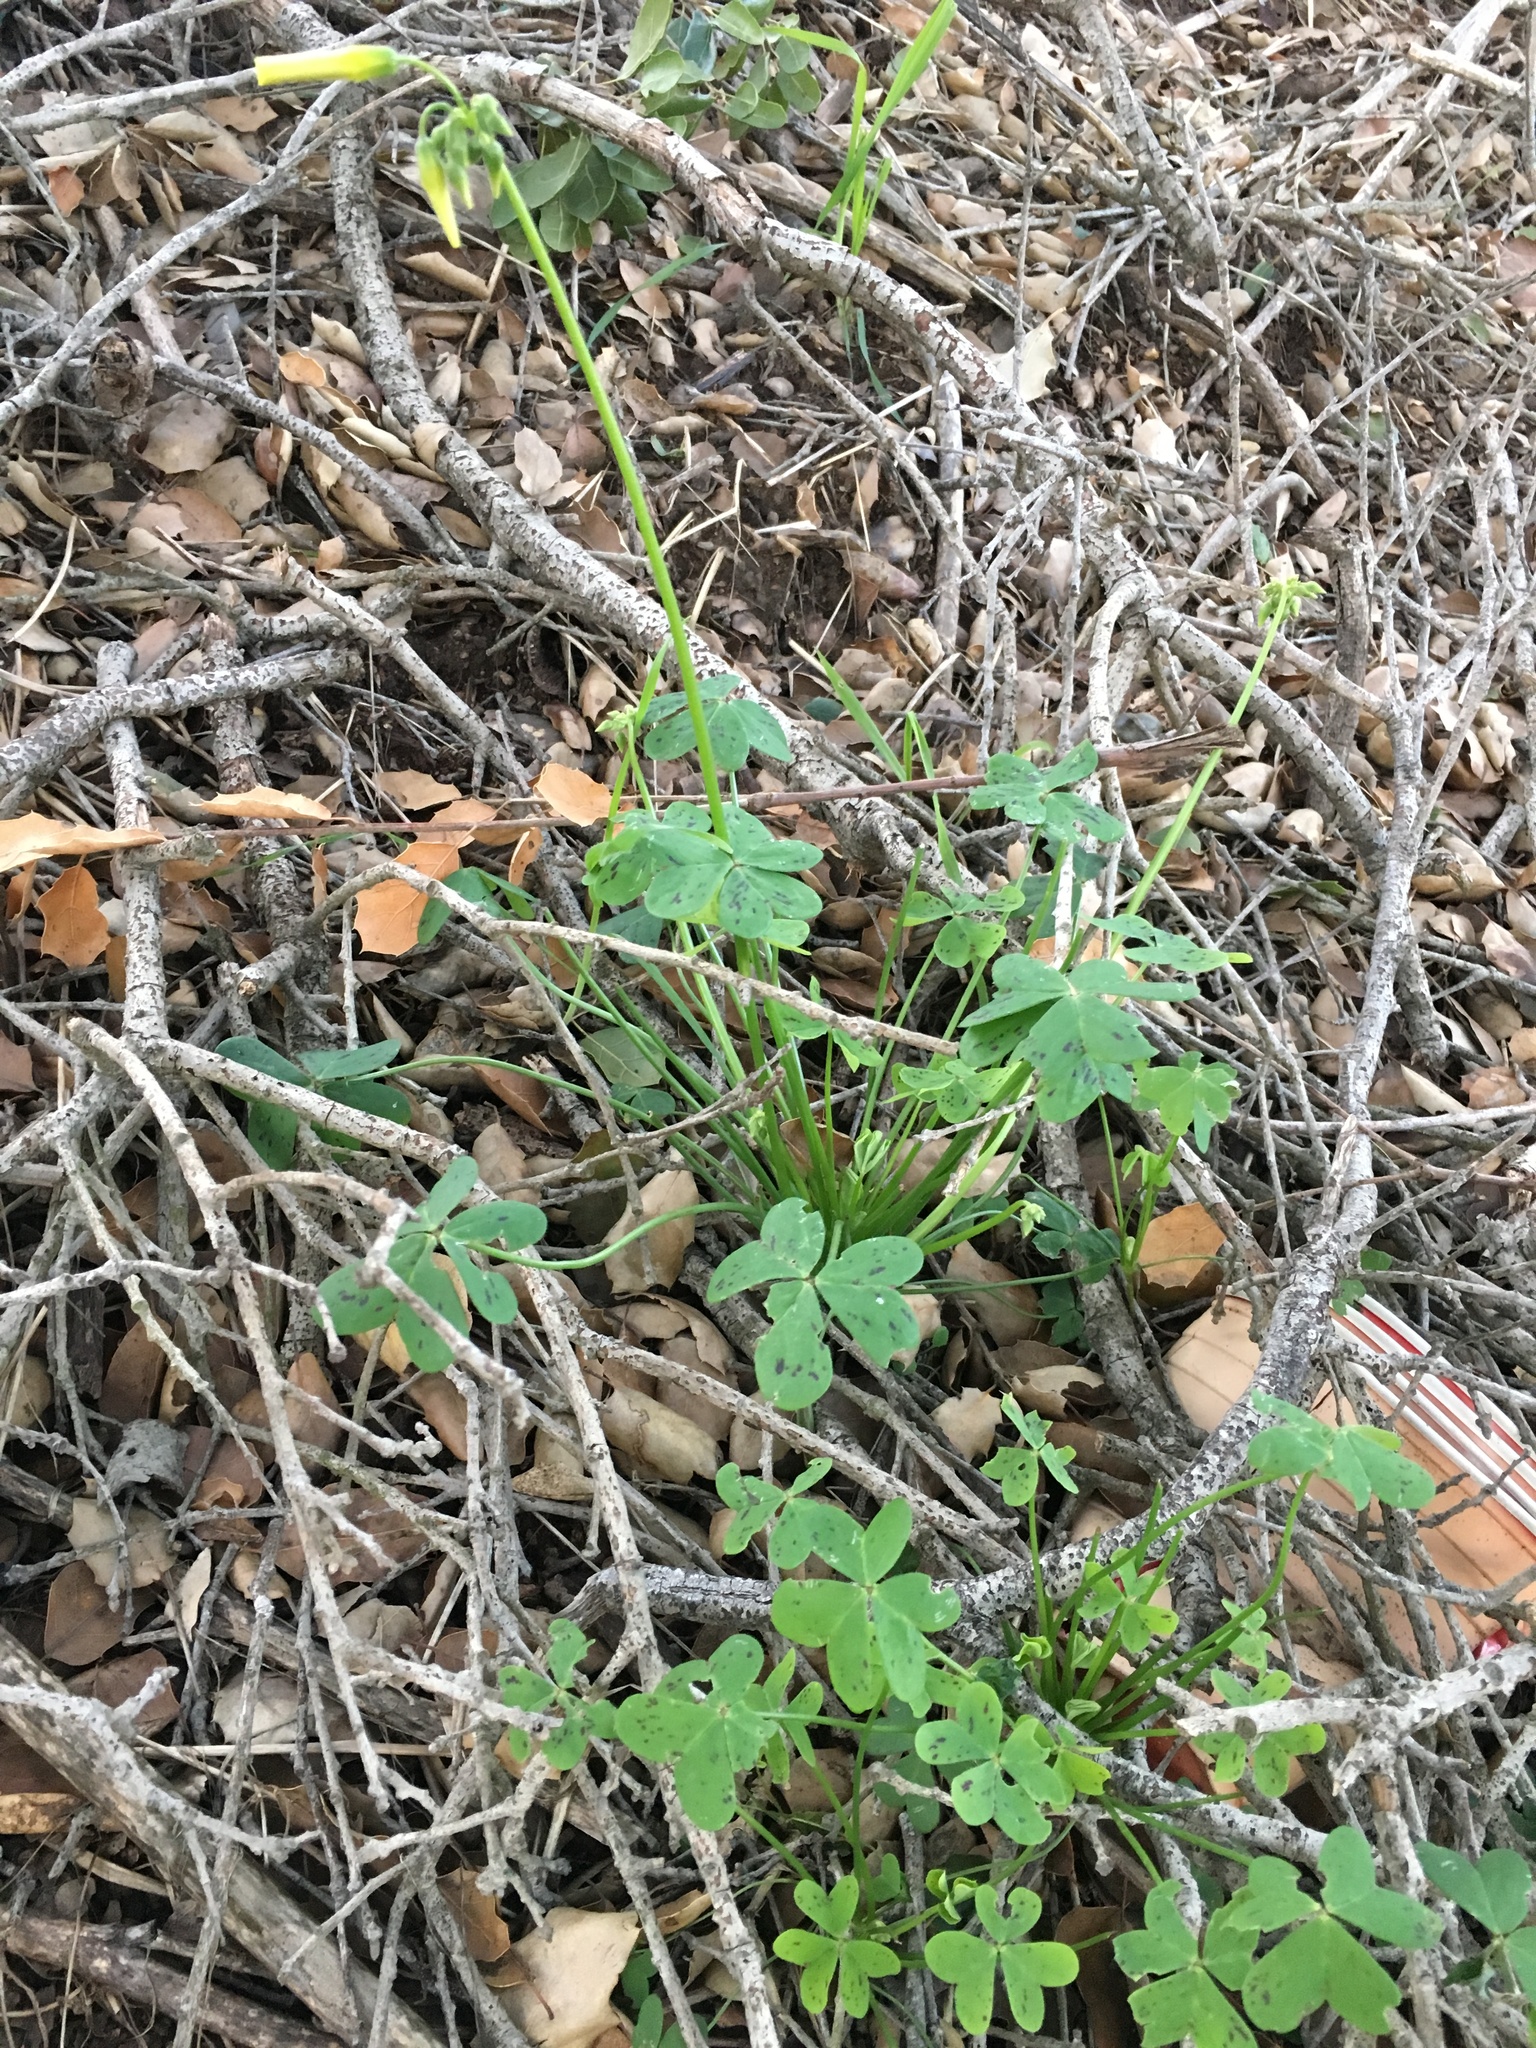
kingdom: Plantae
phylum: Tracheophyta
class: Magnoliopsida
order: Oxalidales
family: Oxalidaceae
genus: Oxalis
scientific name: Oxalis pes-caprae
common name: Bermuda-buttercup
